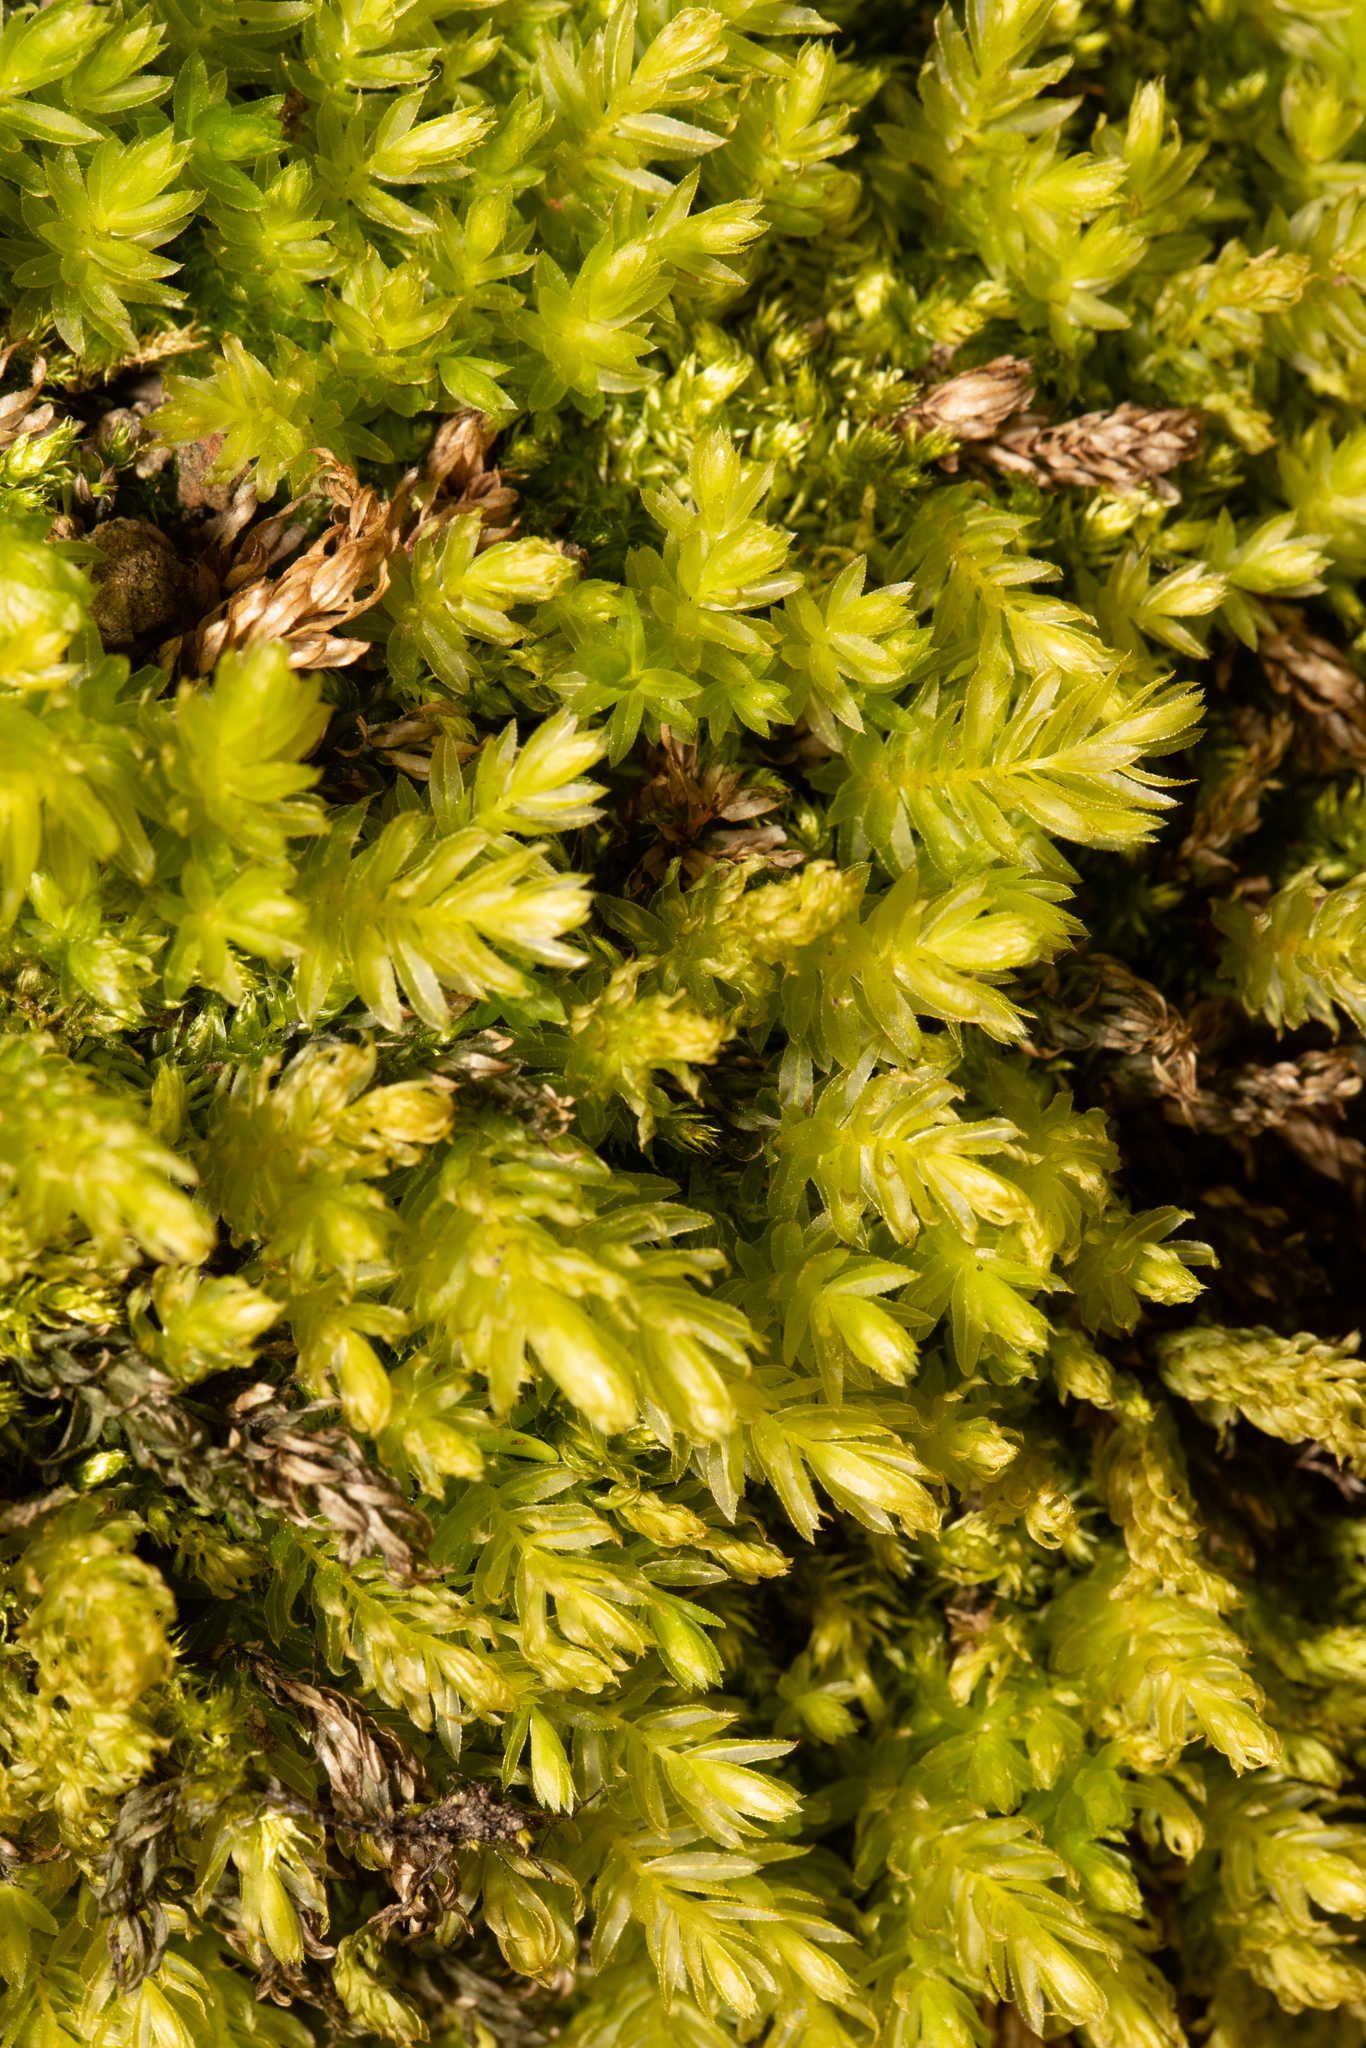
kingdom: Plantae
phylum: Bryophyta
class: Bryopsida
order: Bryales
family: Mniaceae
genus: Mnium
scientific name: Mnium hornum
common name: Swan's-neck leafy moss
